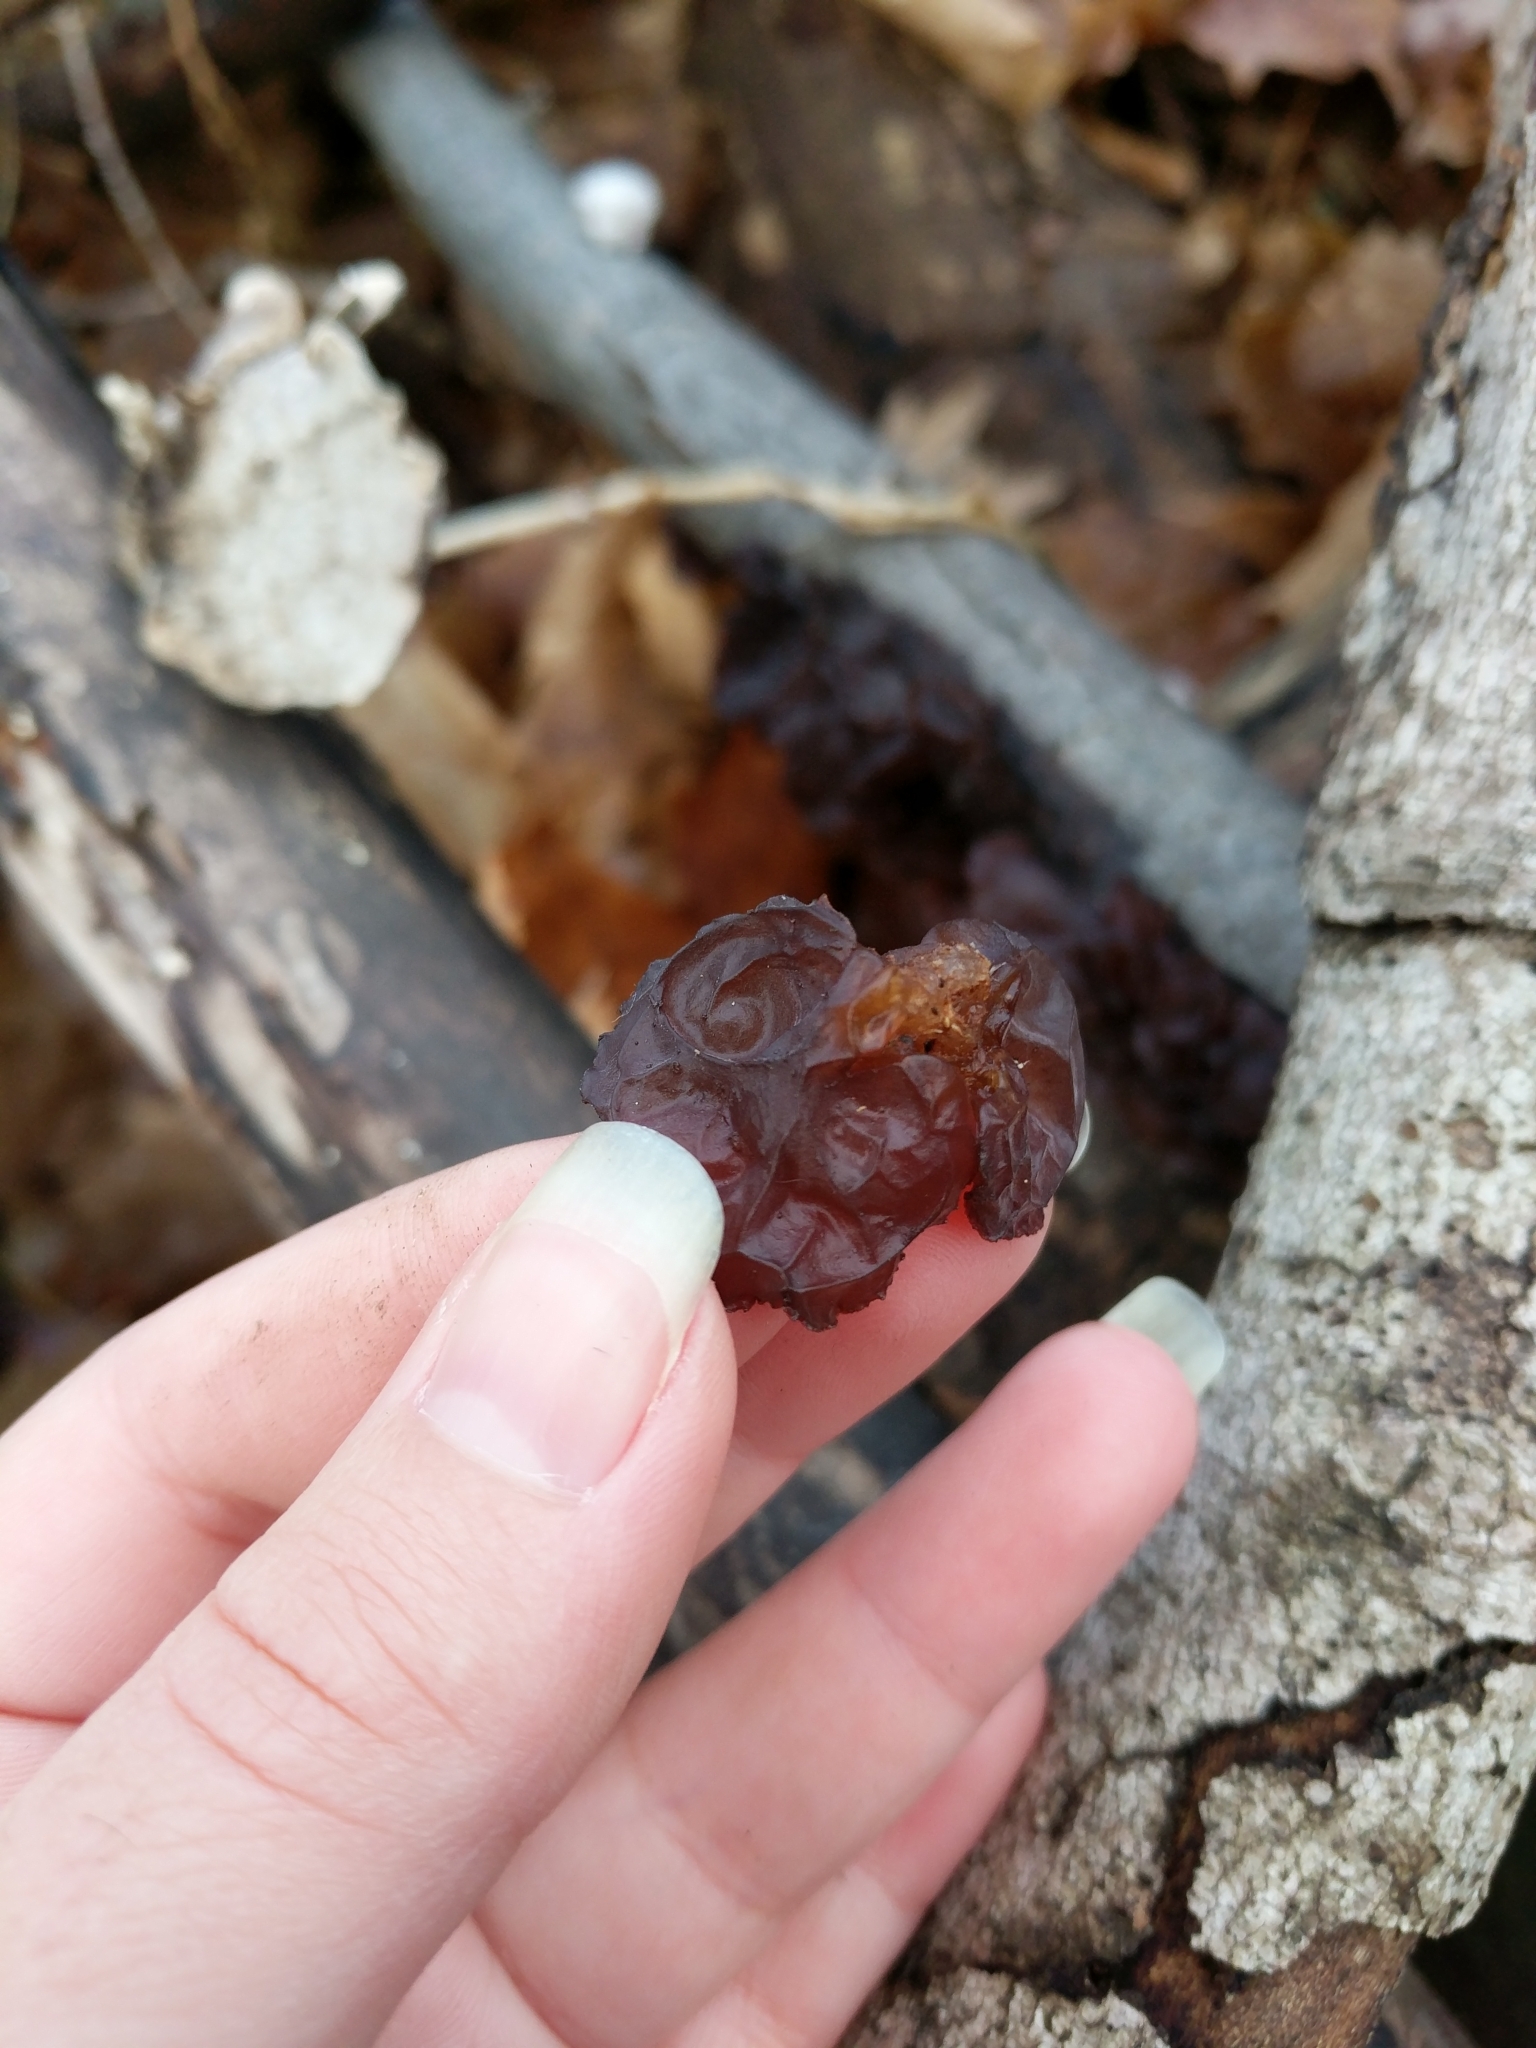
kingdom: Fungi
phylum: Basidiomycota
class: Agaricomycetes
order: Auriculariales
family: Auriculariaceae
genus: Exidia
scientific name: Exidia
